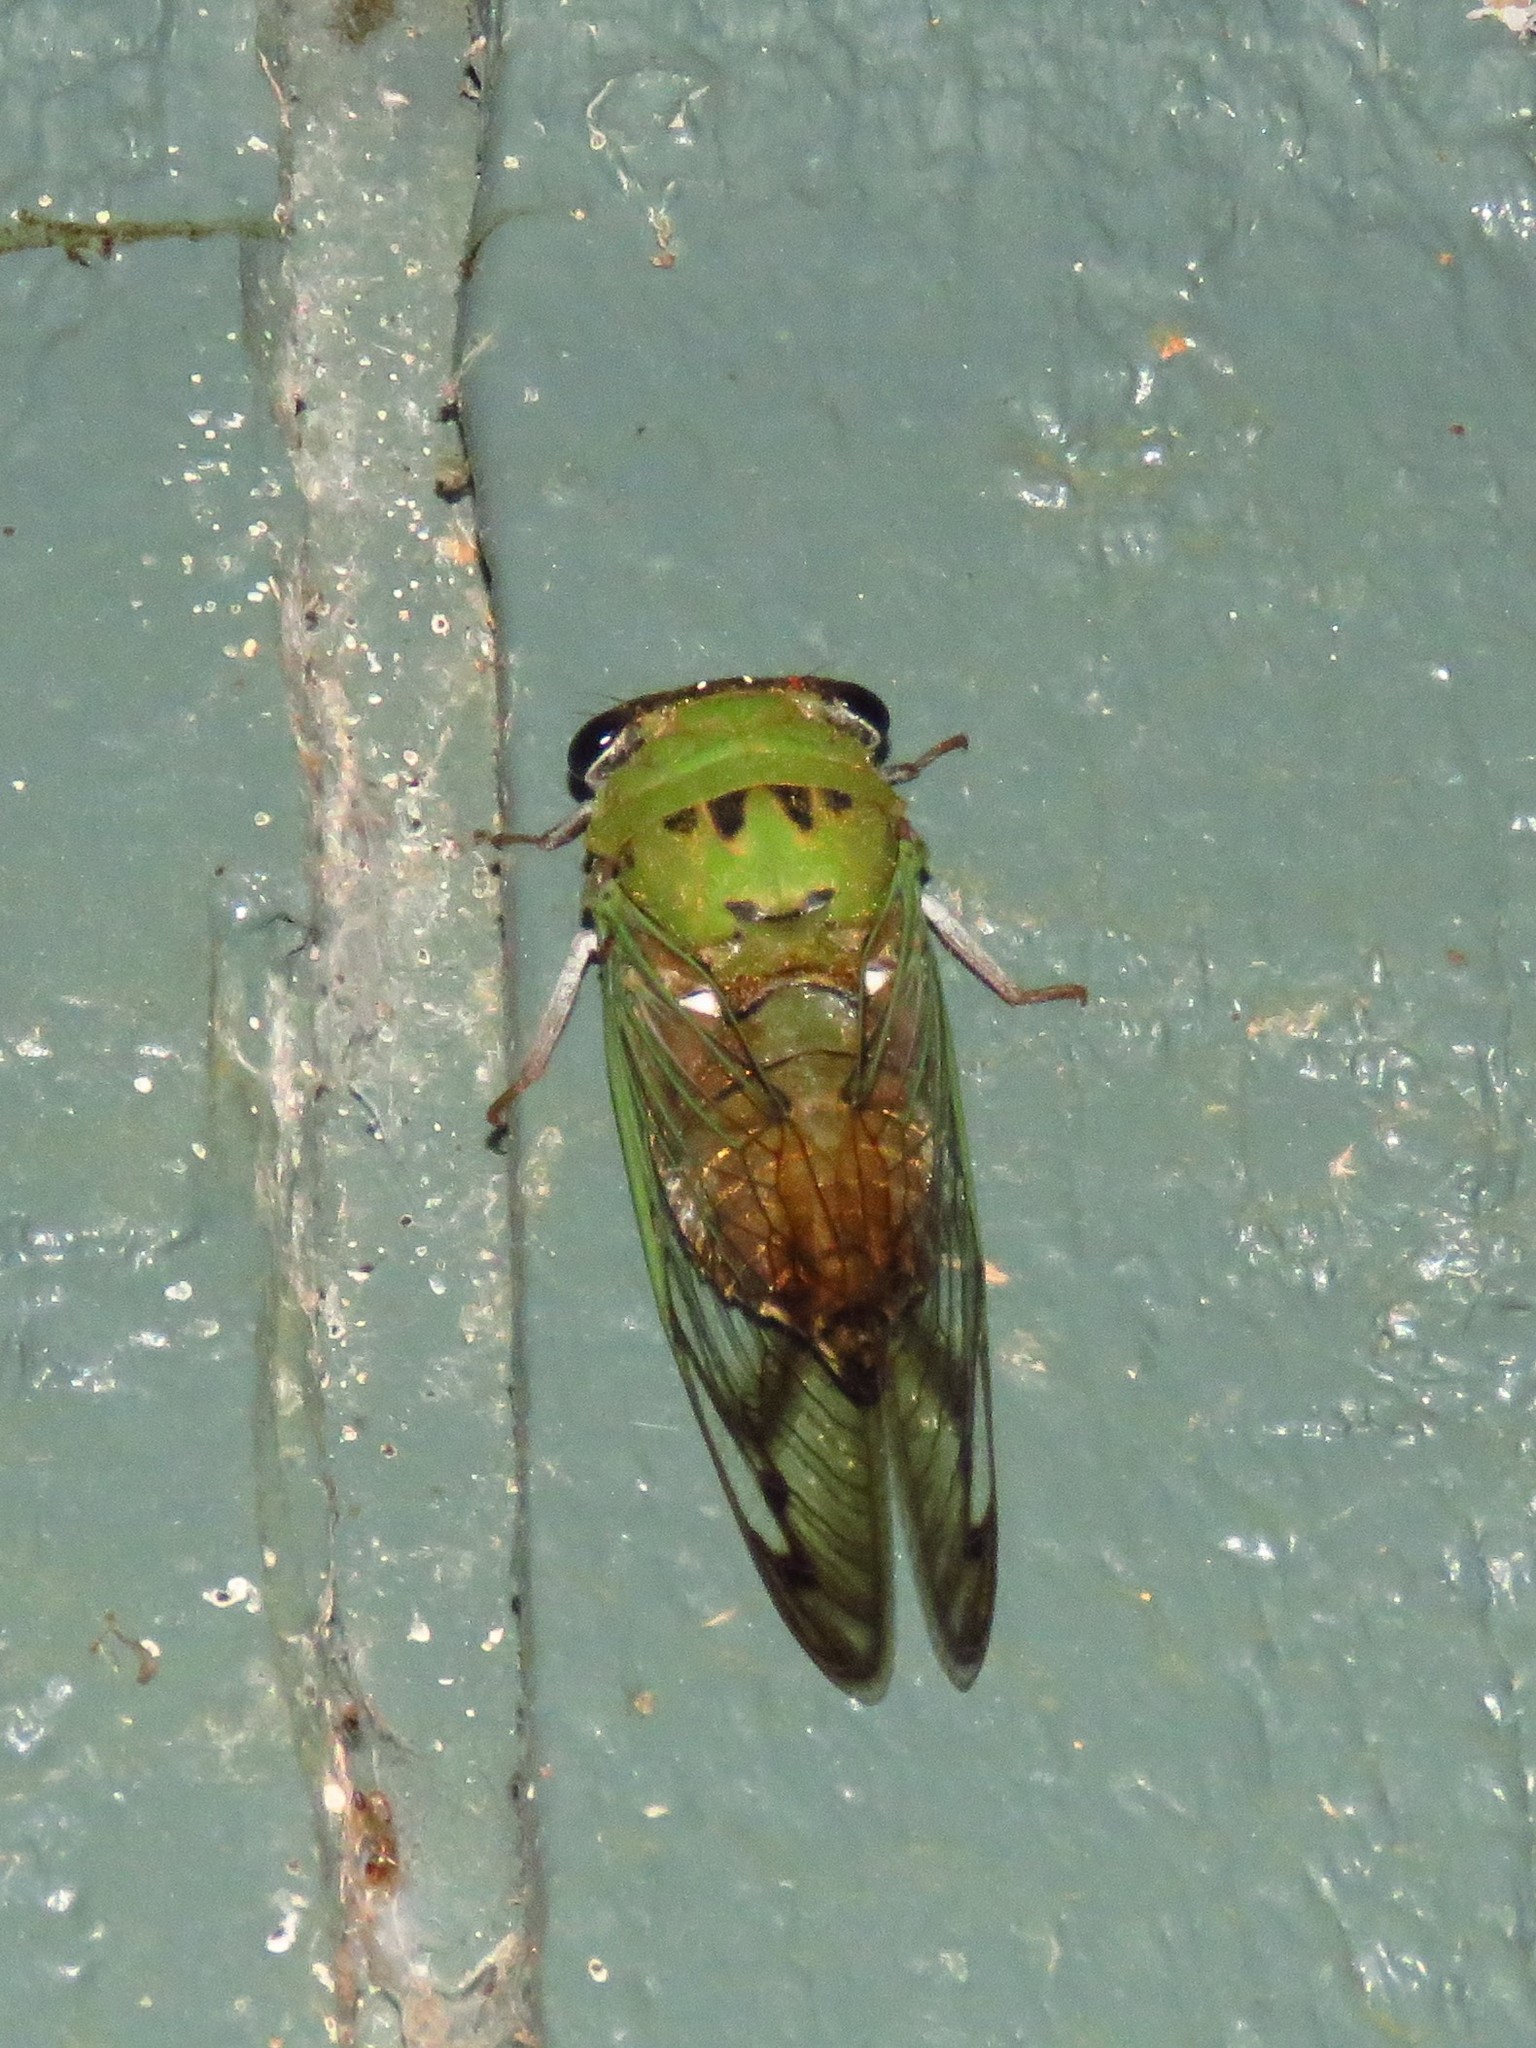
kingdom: Animalia
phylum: Arthropoda
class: Insecta
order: Hemiptera
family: Cicadidae
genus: Neotibicen
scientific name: Neotibicen superbus
